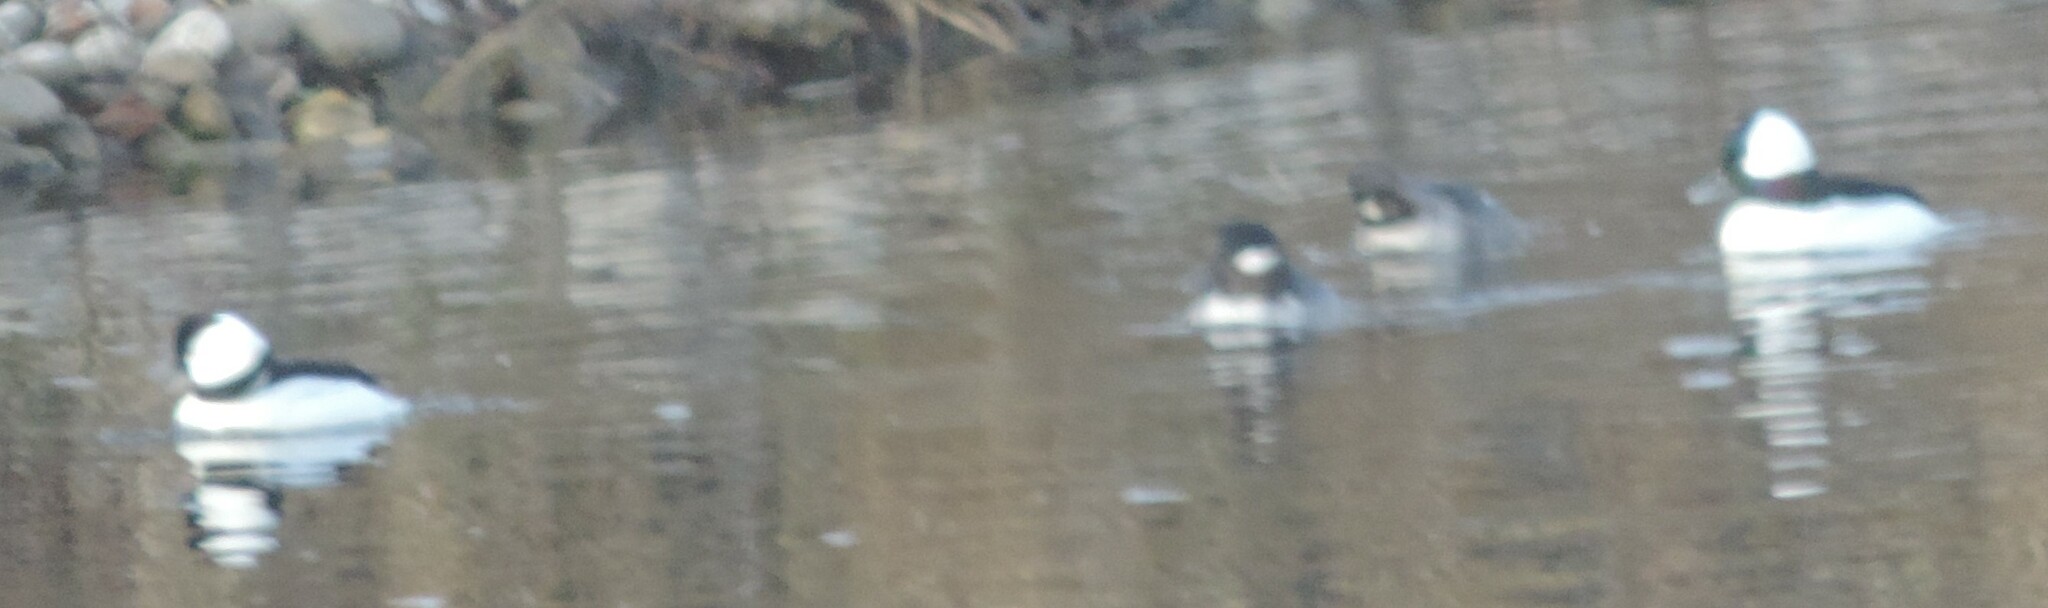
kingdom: Animalia
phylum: Chordata
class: Aves
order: Anseriformes
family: Anatidae
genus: Bucephala
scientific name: Bucephala albeola
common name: Bufflehead
